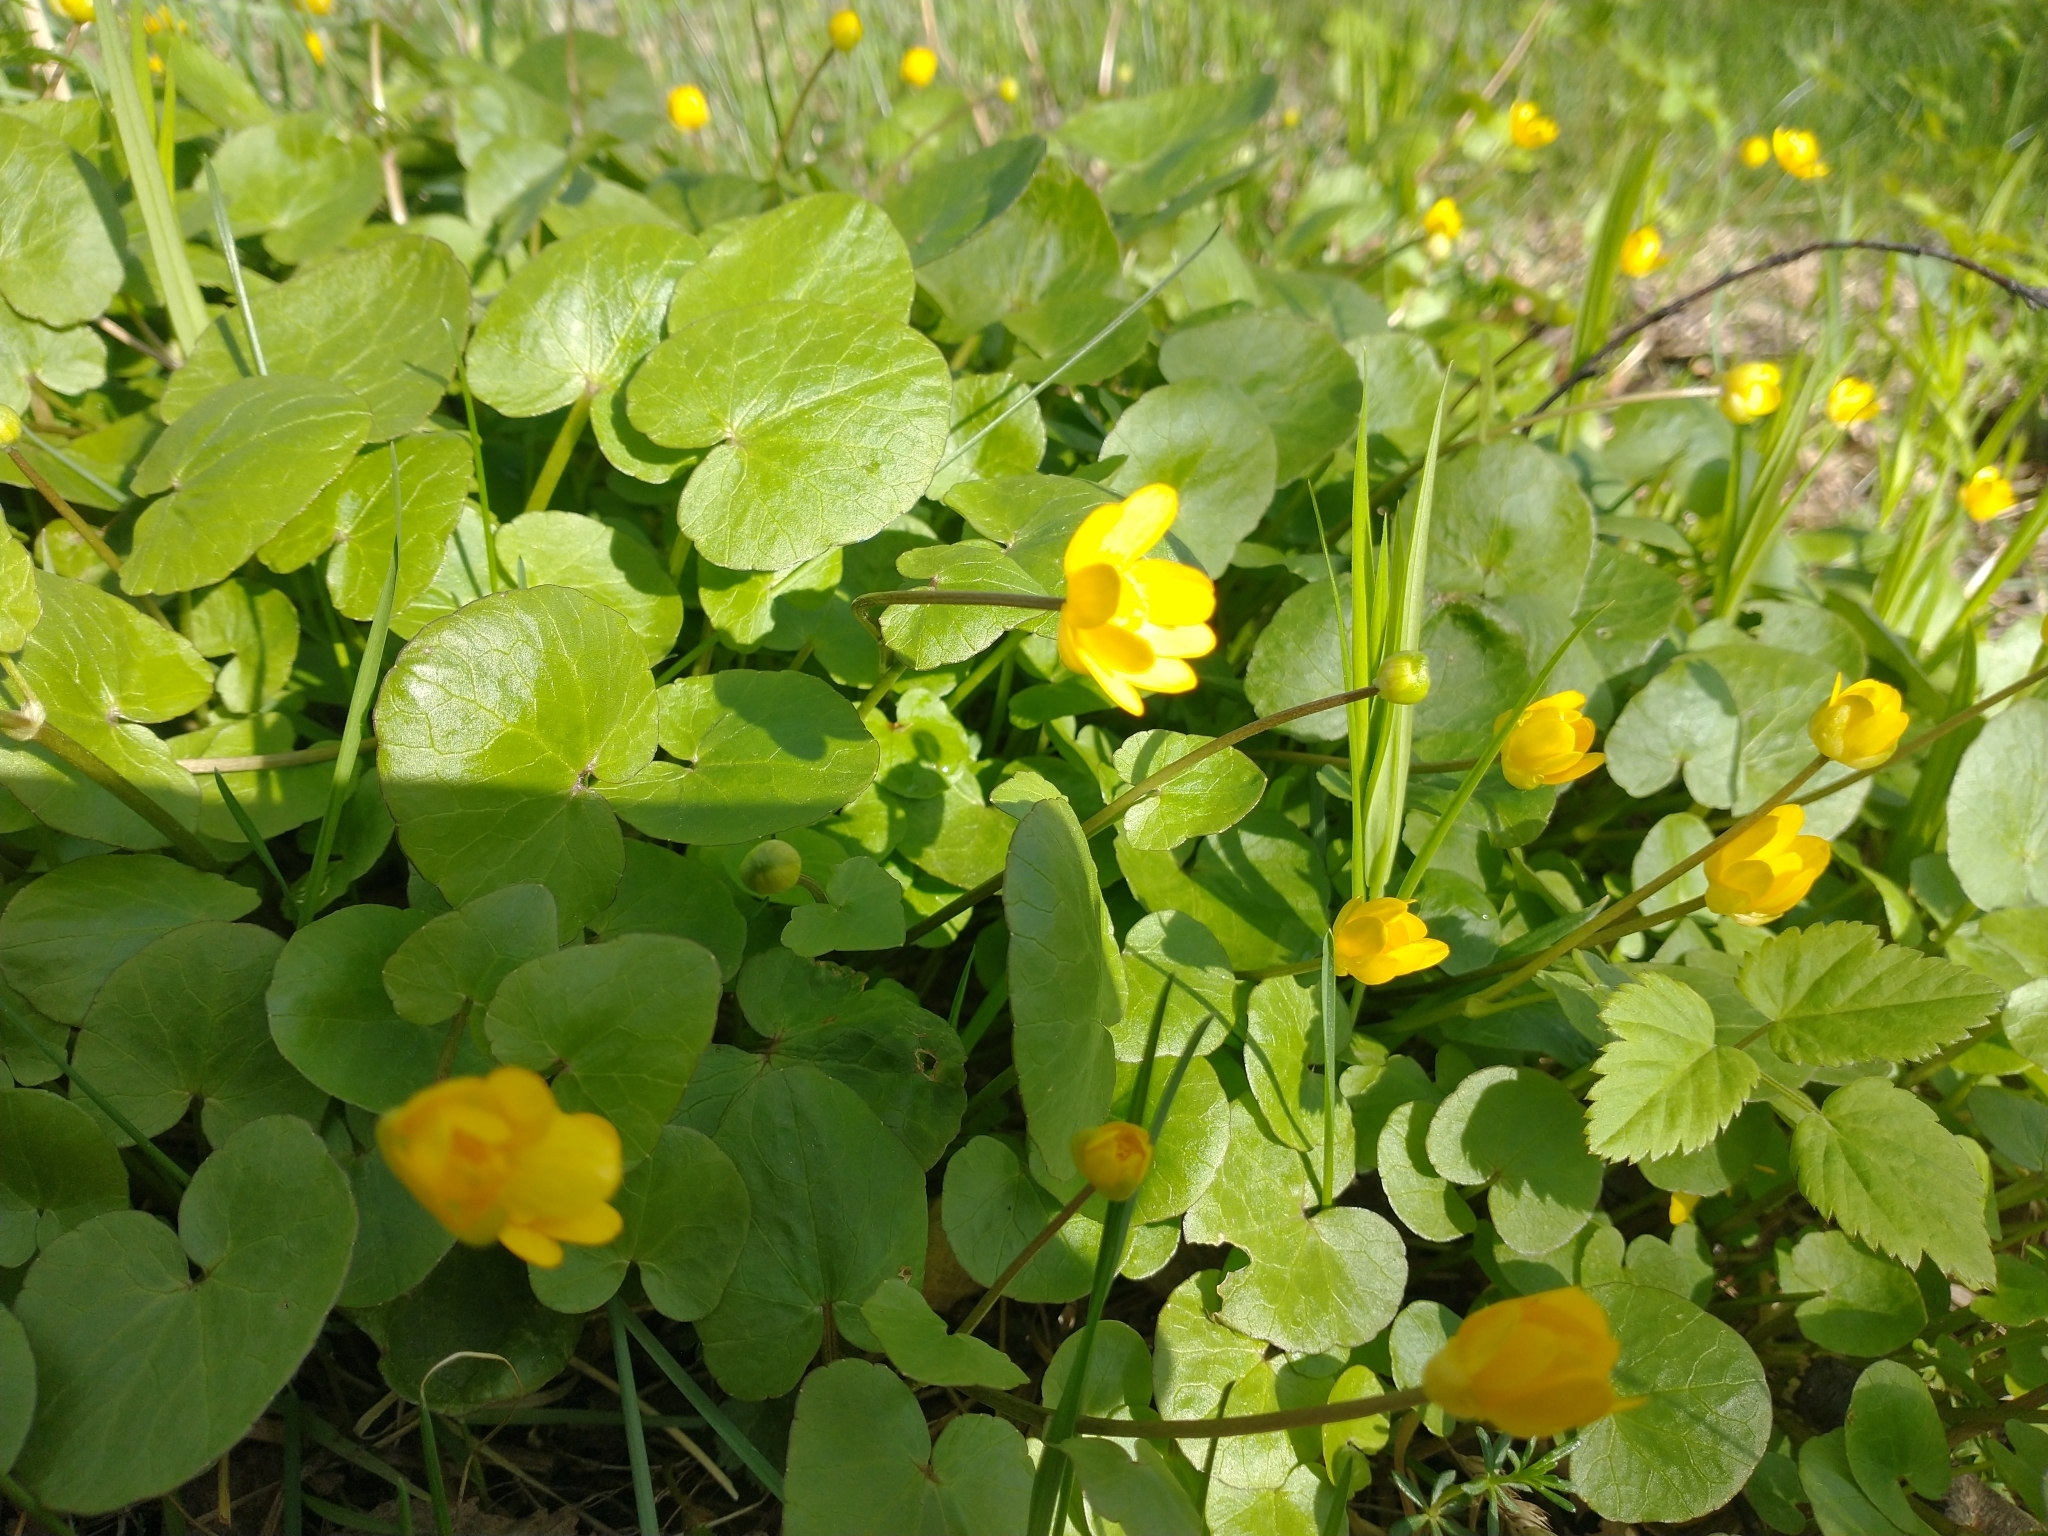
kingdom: Plantae
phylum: Tracheophyta
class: Magnoliopsida
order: Ranunculales
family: Ranunculaceae
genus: Ficaria
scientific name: Ficaria verna
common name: Lesser celandine
